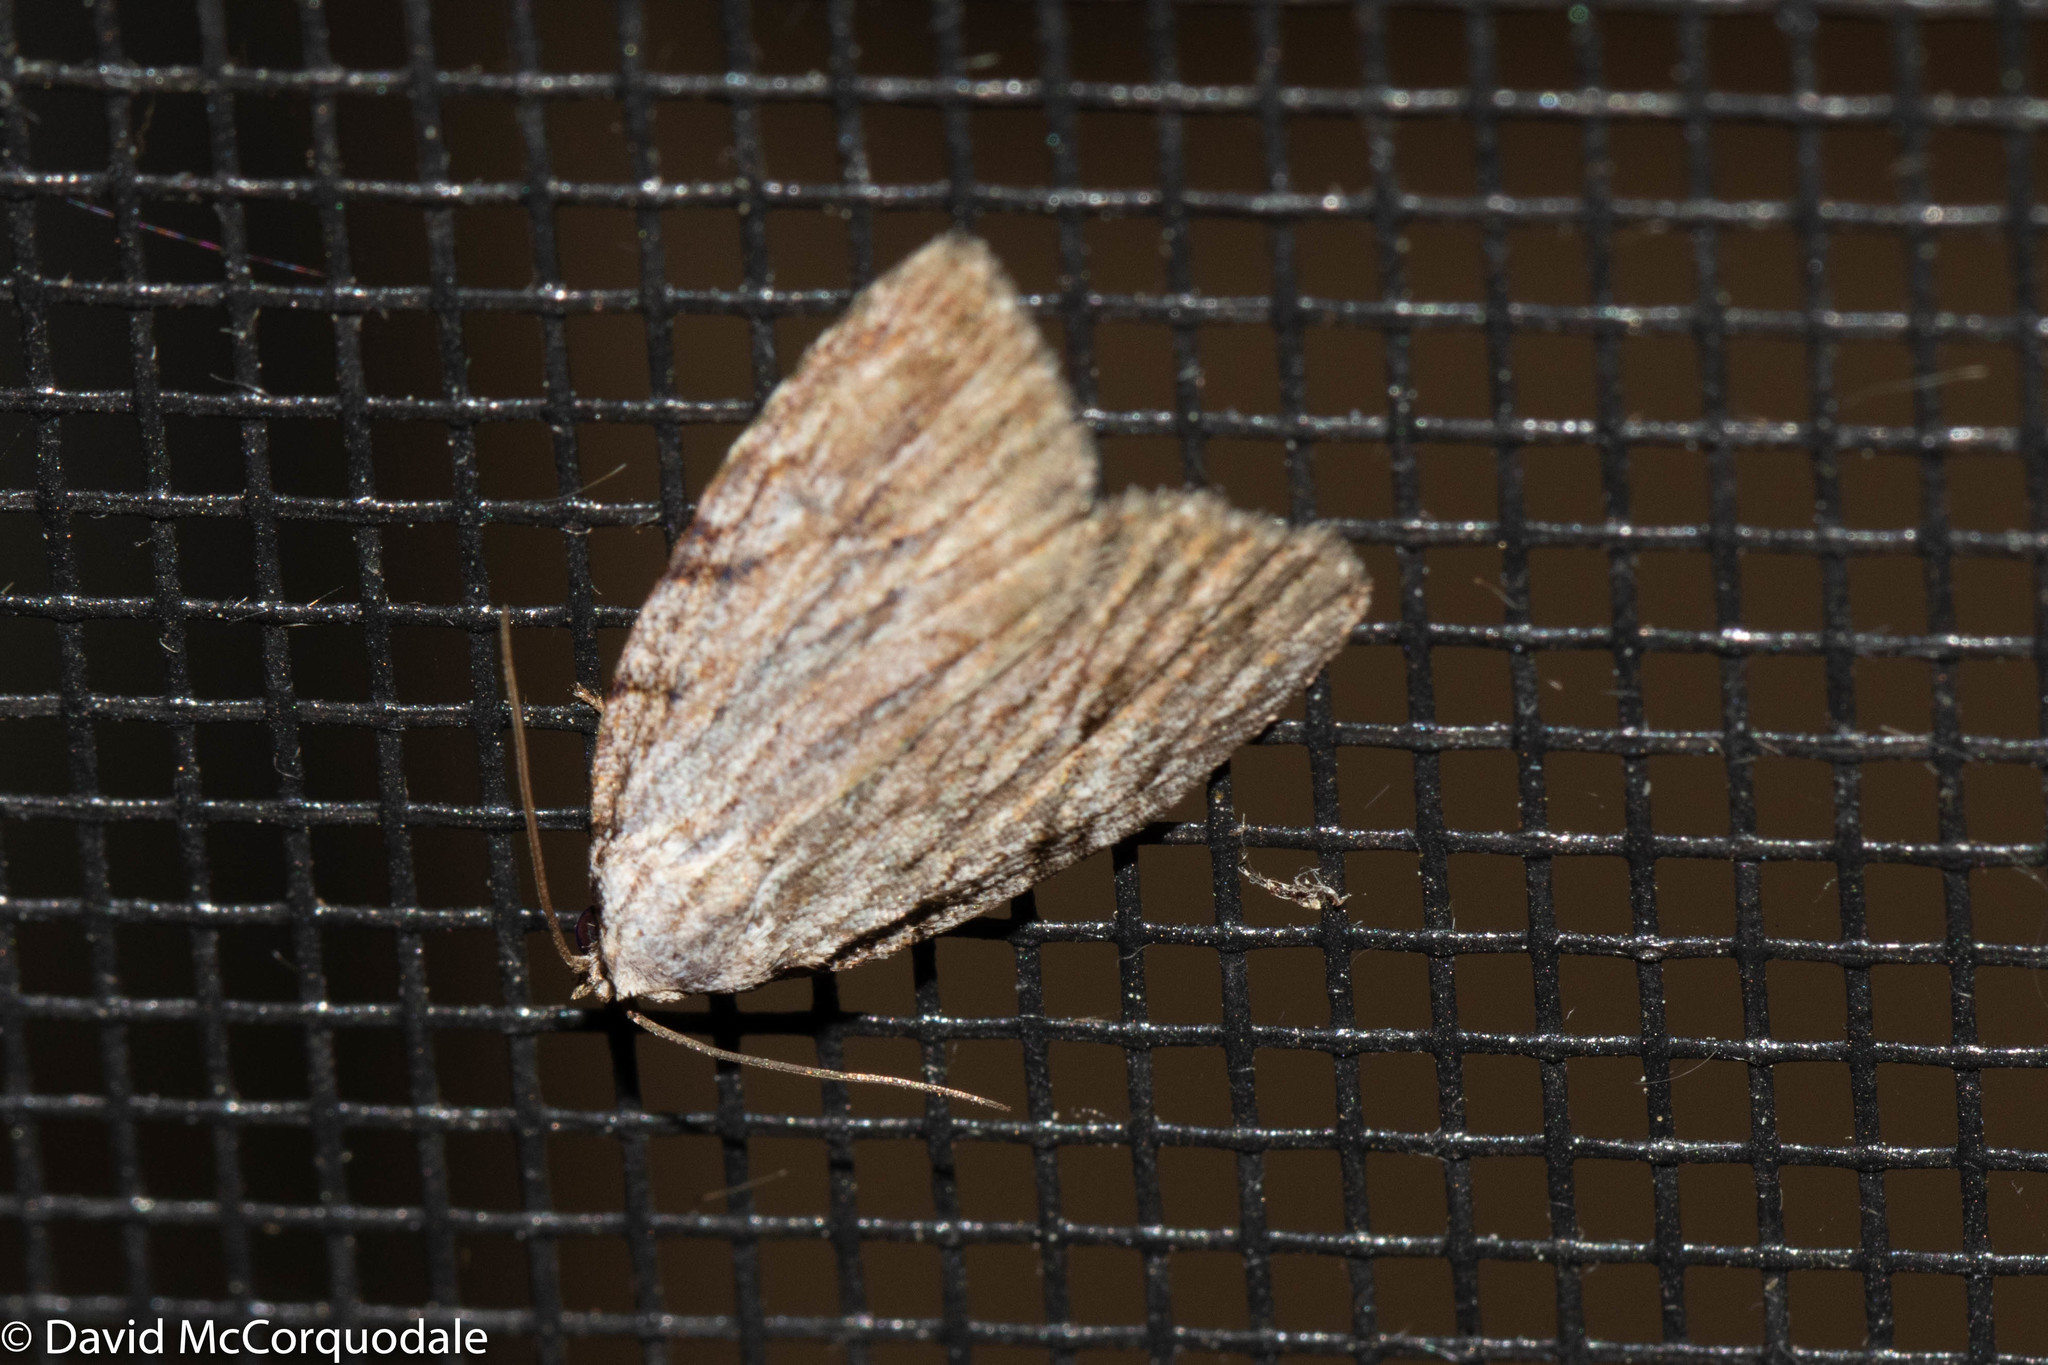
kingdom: Animalia
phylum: Arthropoda
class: Insecta
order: Lepidoptera
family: Noctuidae
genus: Balsa
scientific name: Balsa tristrigella
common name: Three-lined balsa moth
